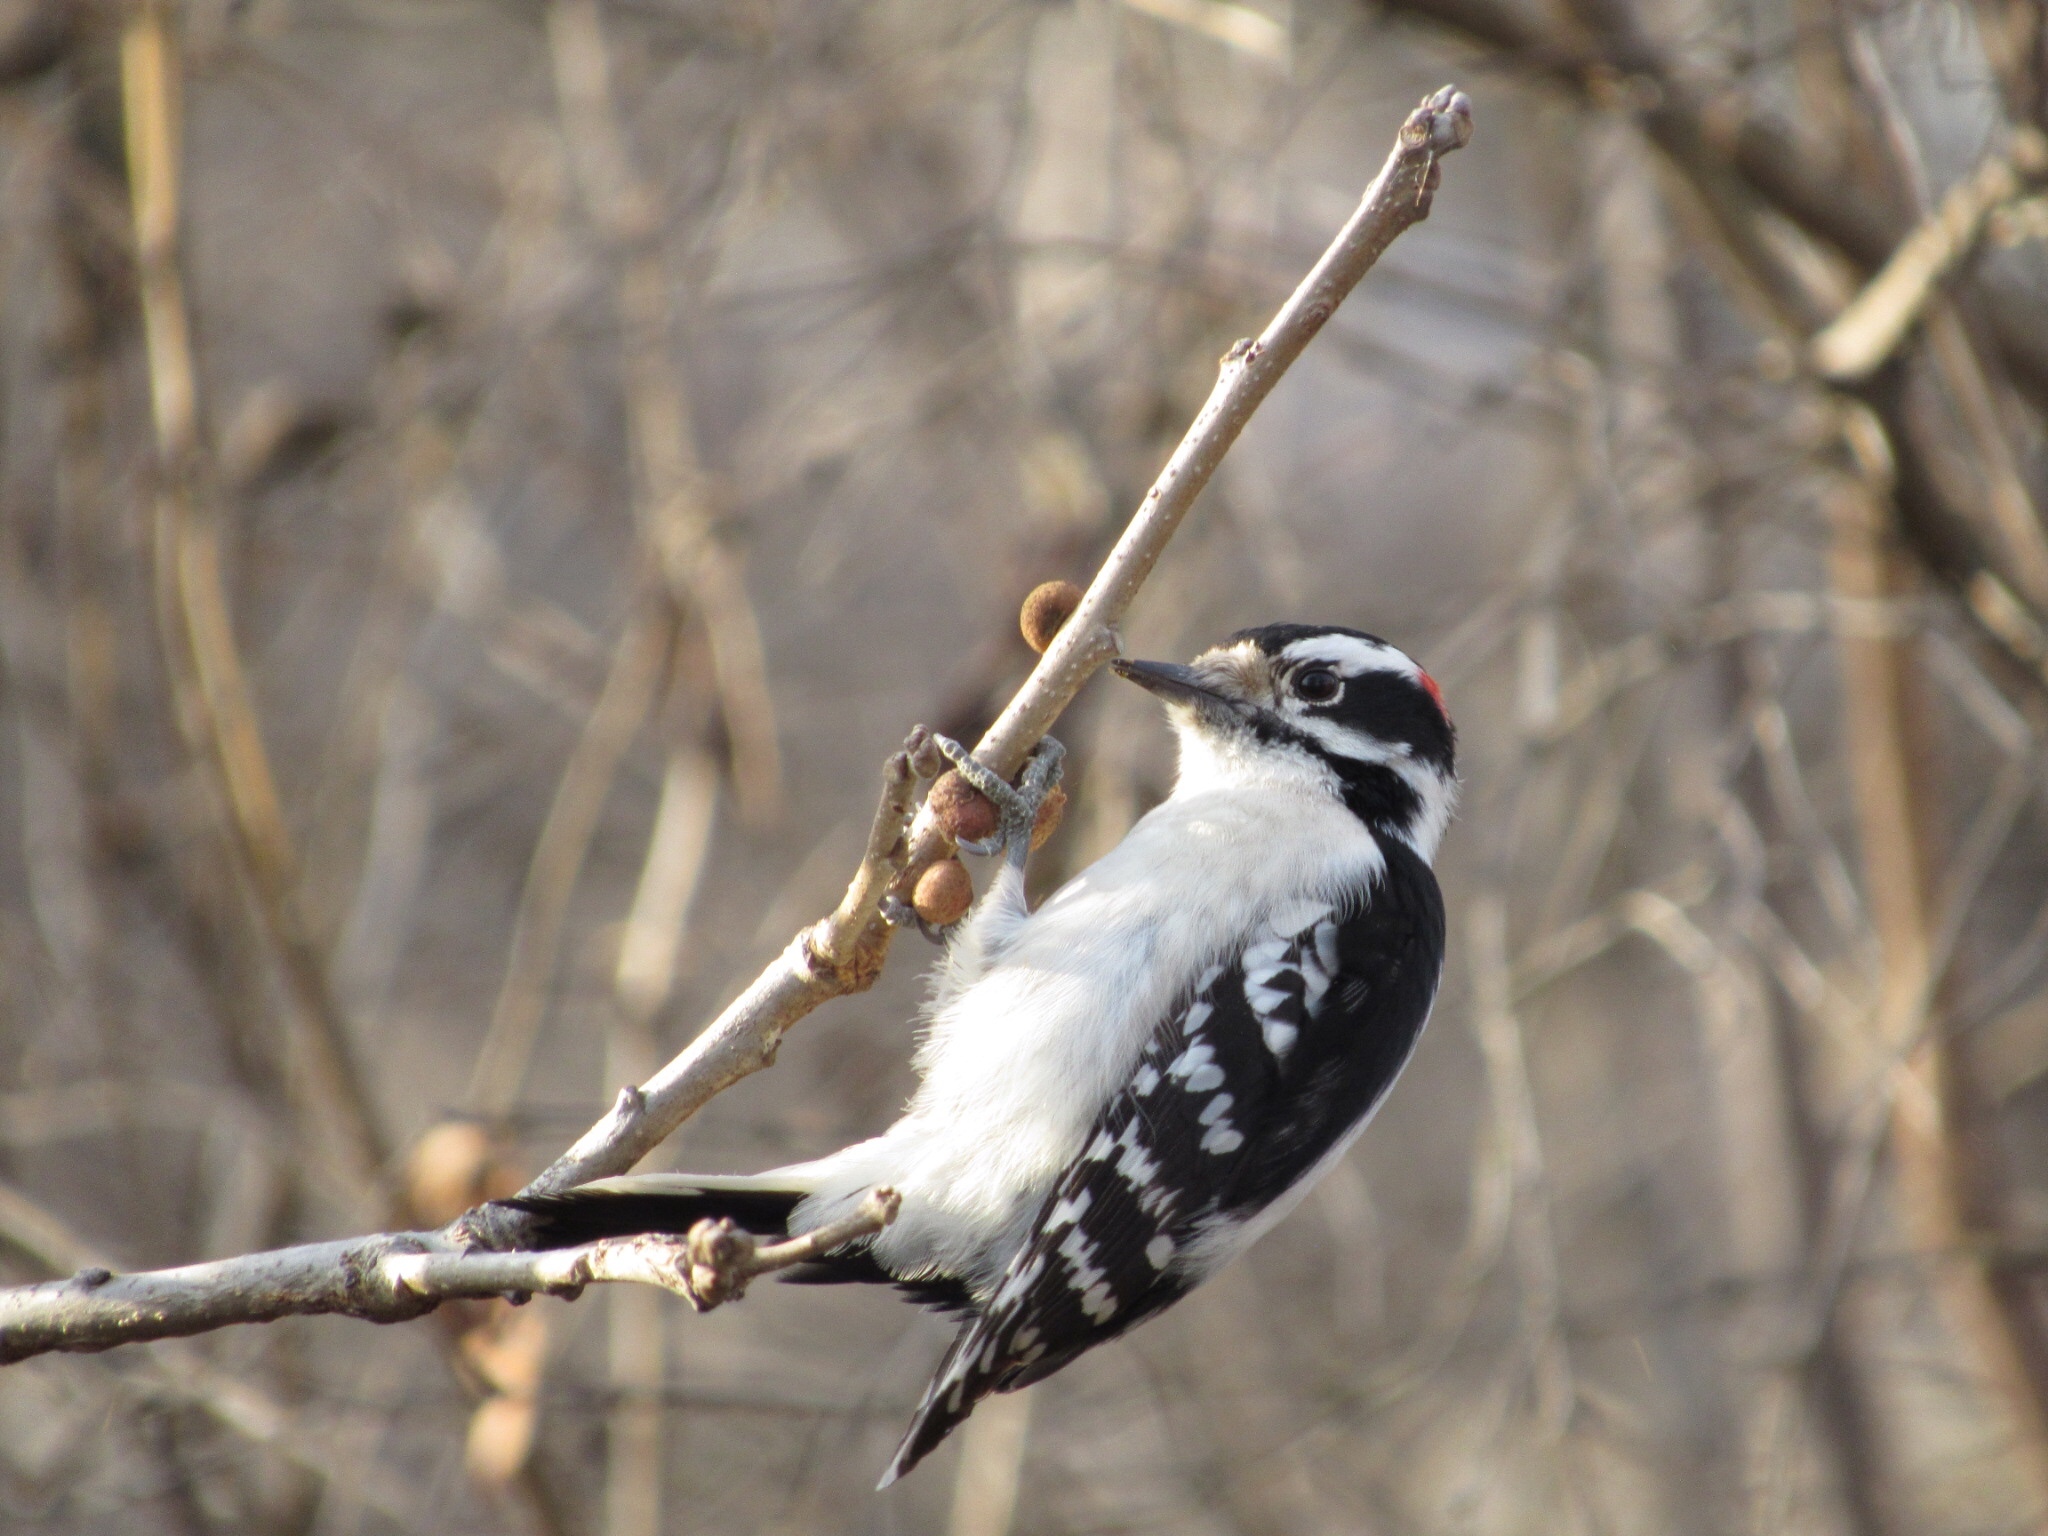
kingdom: Animalia
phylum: Chordata
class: Aves
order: Piciformes
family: Picidae
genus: Dryobates
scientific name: Dryobates pubescens
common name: Downy woodpecker
